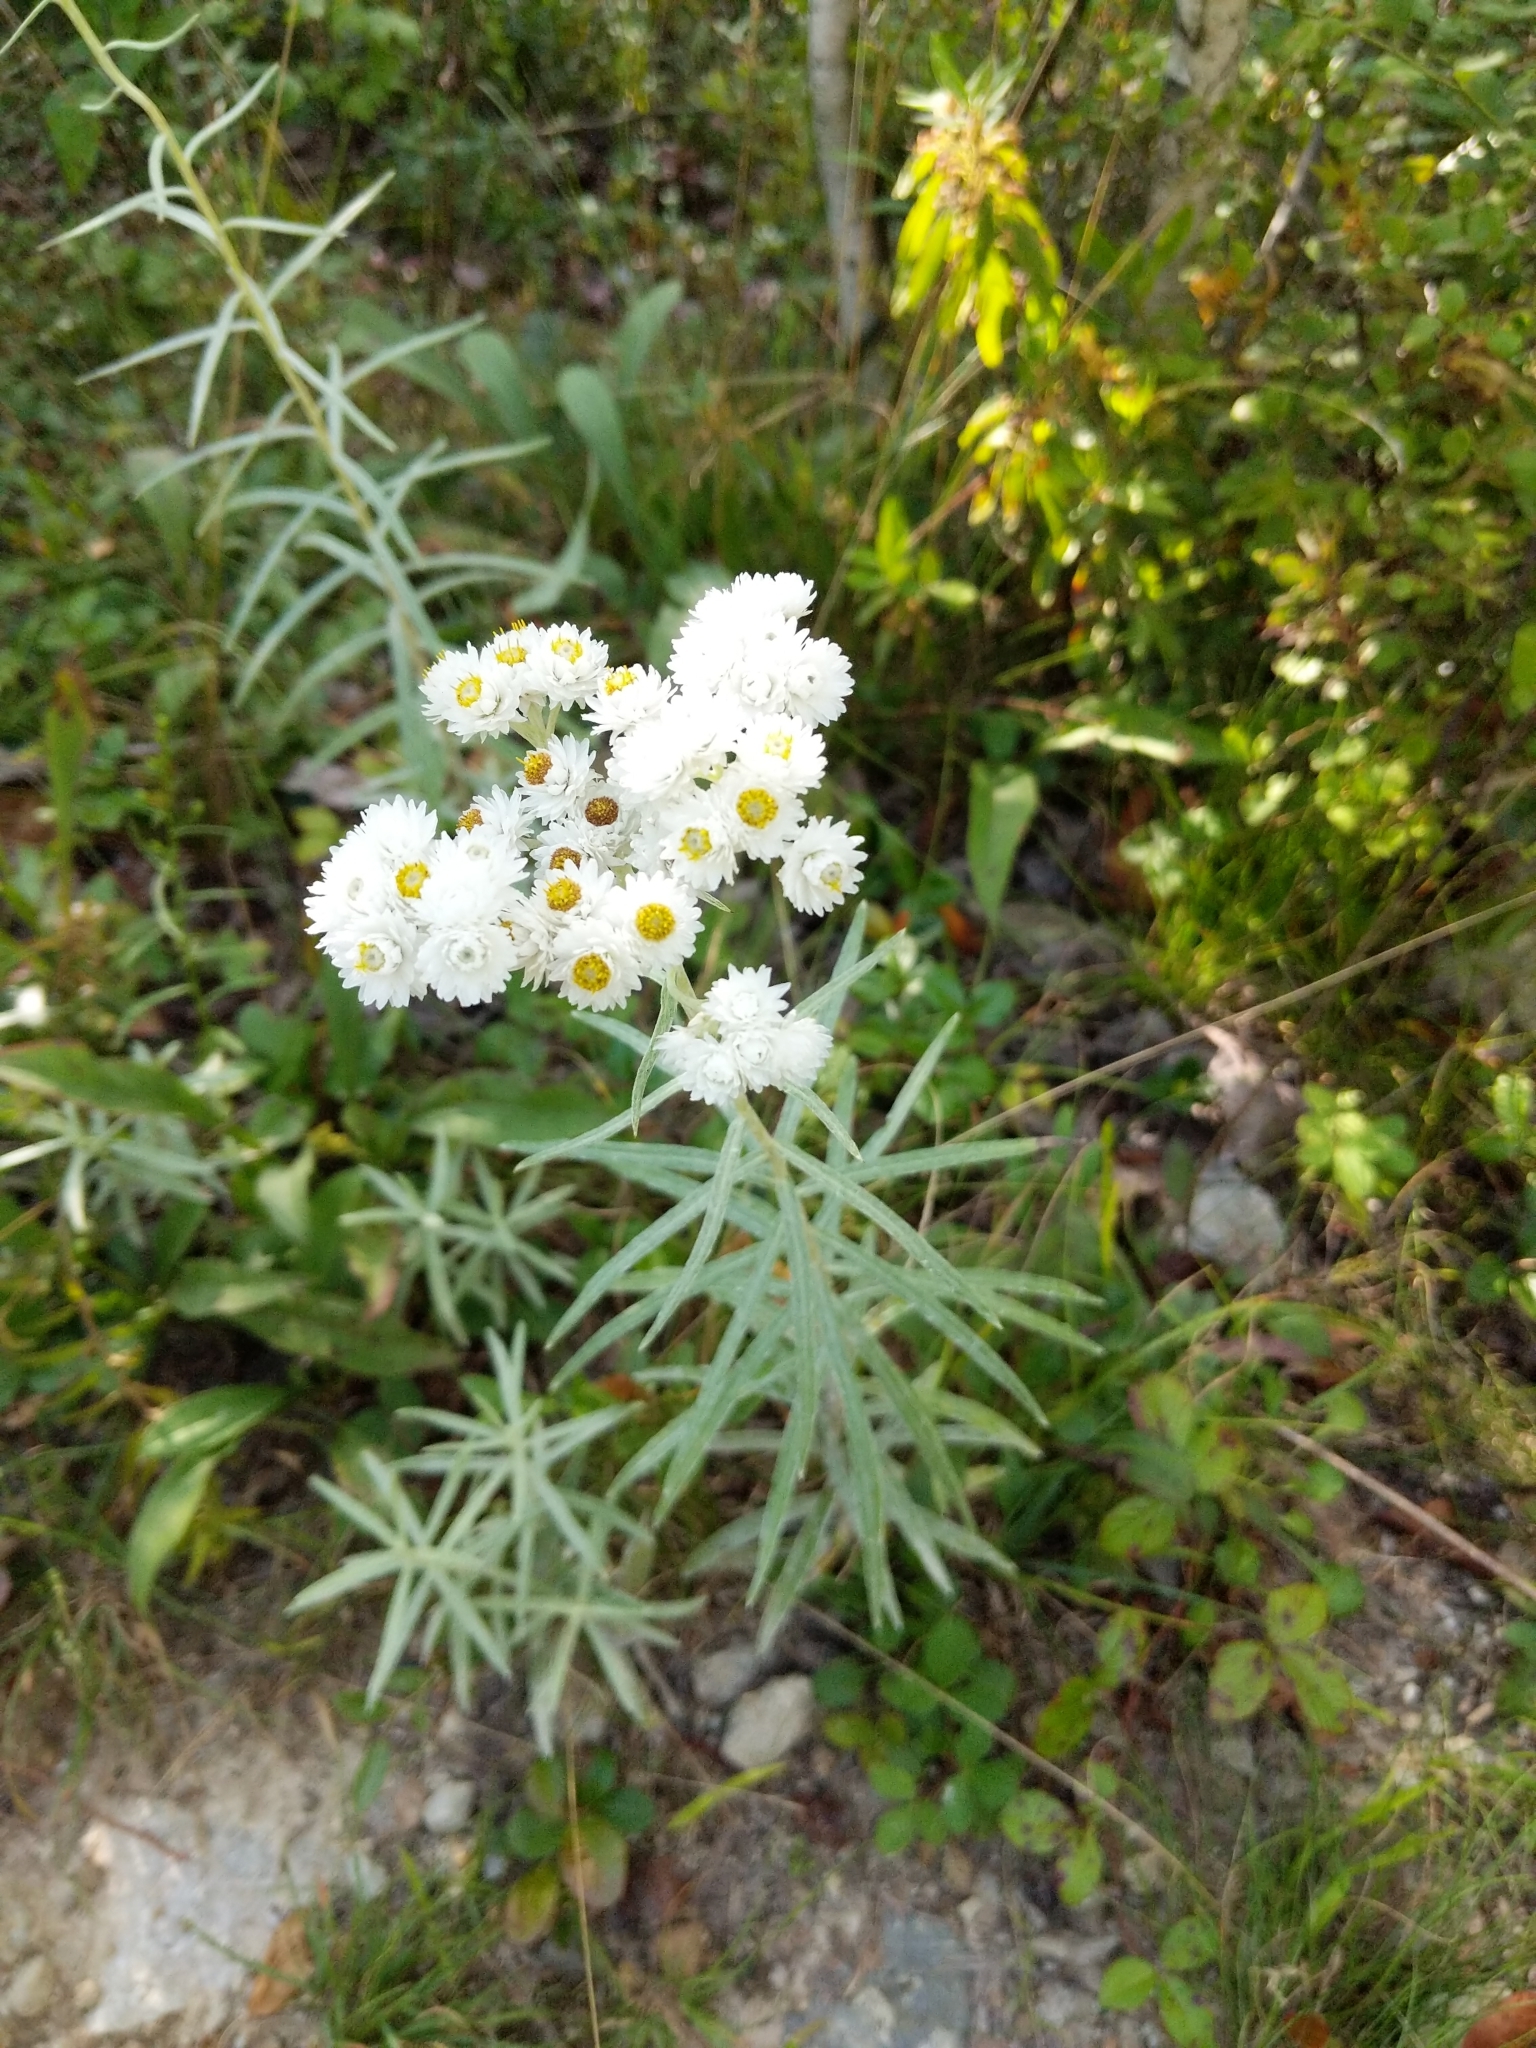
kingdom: Plantae
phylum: Tracheophyta
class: Magnoliopsida
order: Asterales
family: Asteraceae
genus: Anaphalis
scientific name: Anaphalis margaritacea
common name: Pearly everlasting
